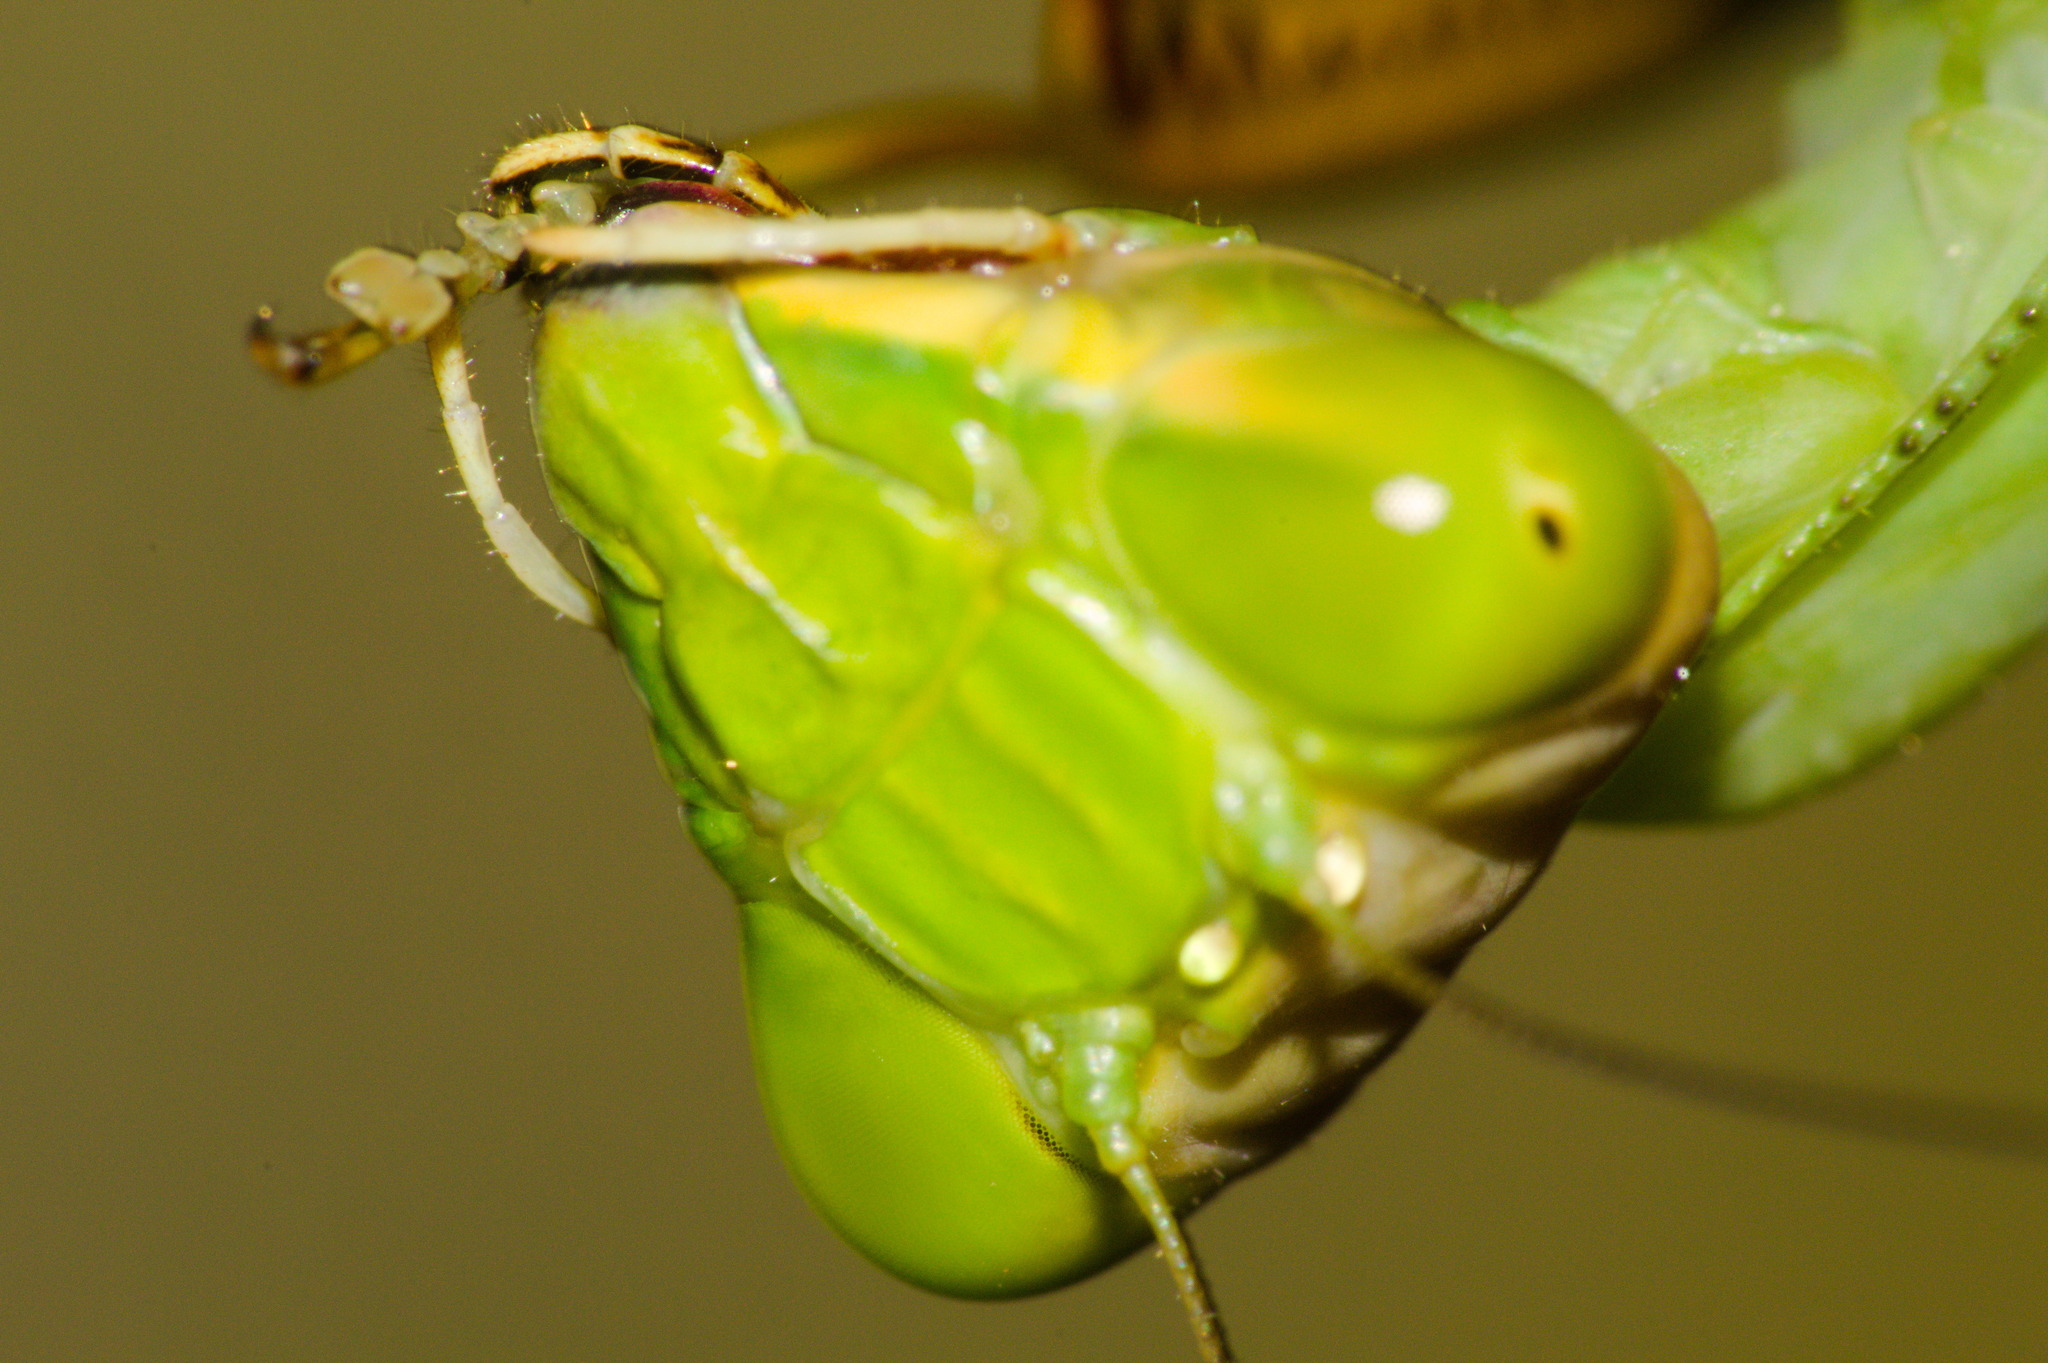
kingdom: Animalia
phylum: Arthropoda
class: Insecta
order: Mantodea
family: Mantidae
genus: Stagmatoptera
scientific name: Stagmatoptera hyaloptera
